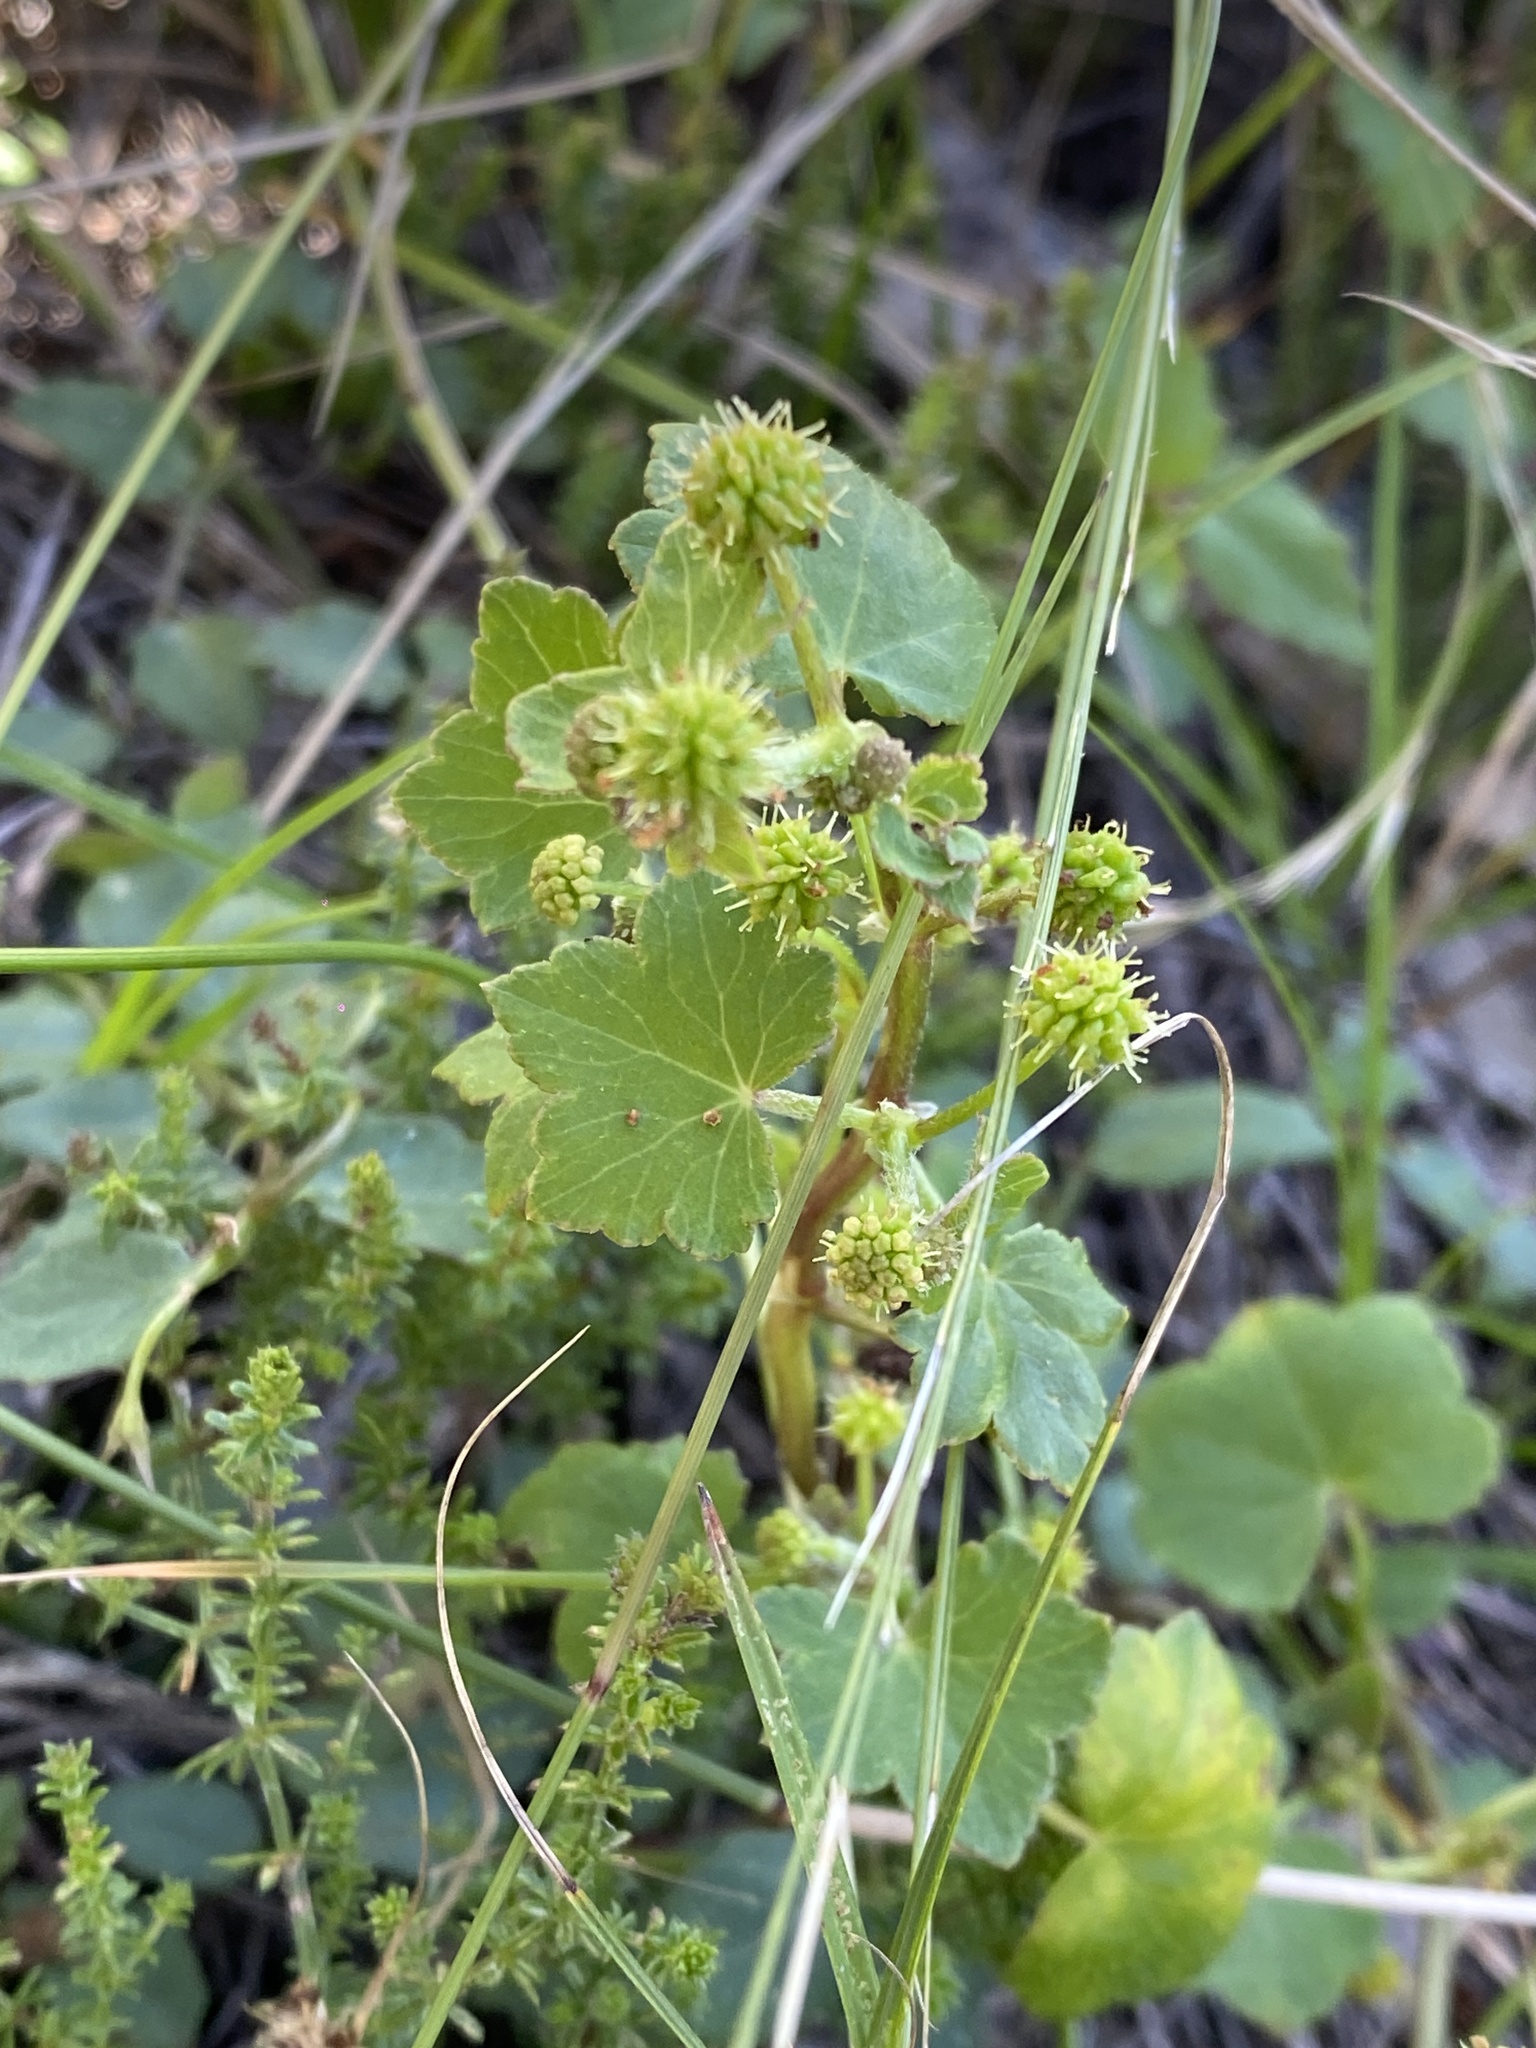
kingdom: Plantae
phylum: Tracheophyta
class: Magnoliopsida
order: Apiales
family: Araliaceae
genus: Hydrocotyle
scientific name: Hydrocotyle laxiflora
